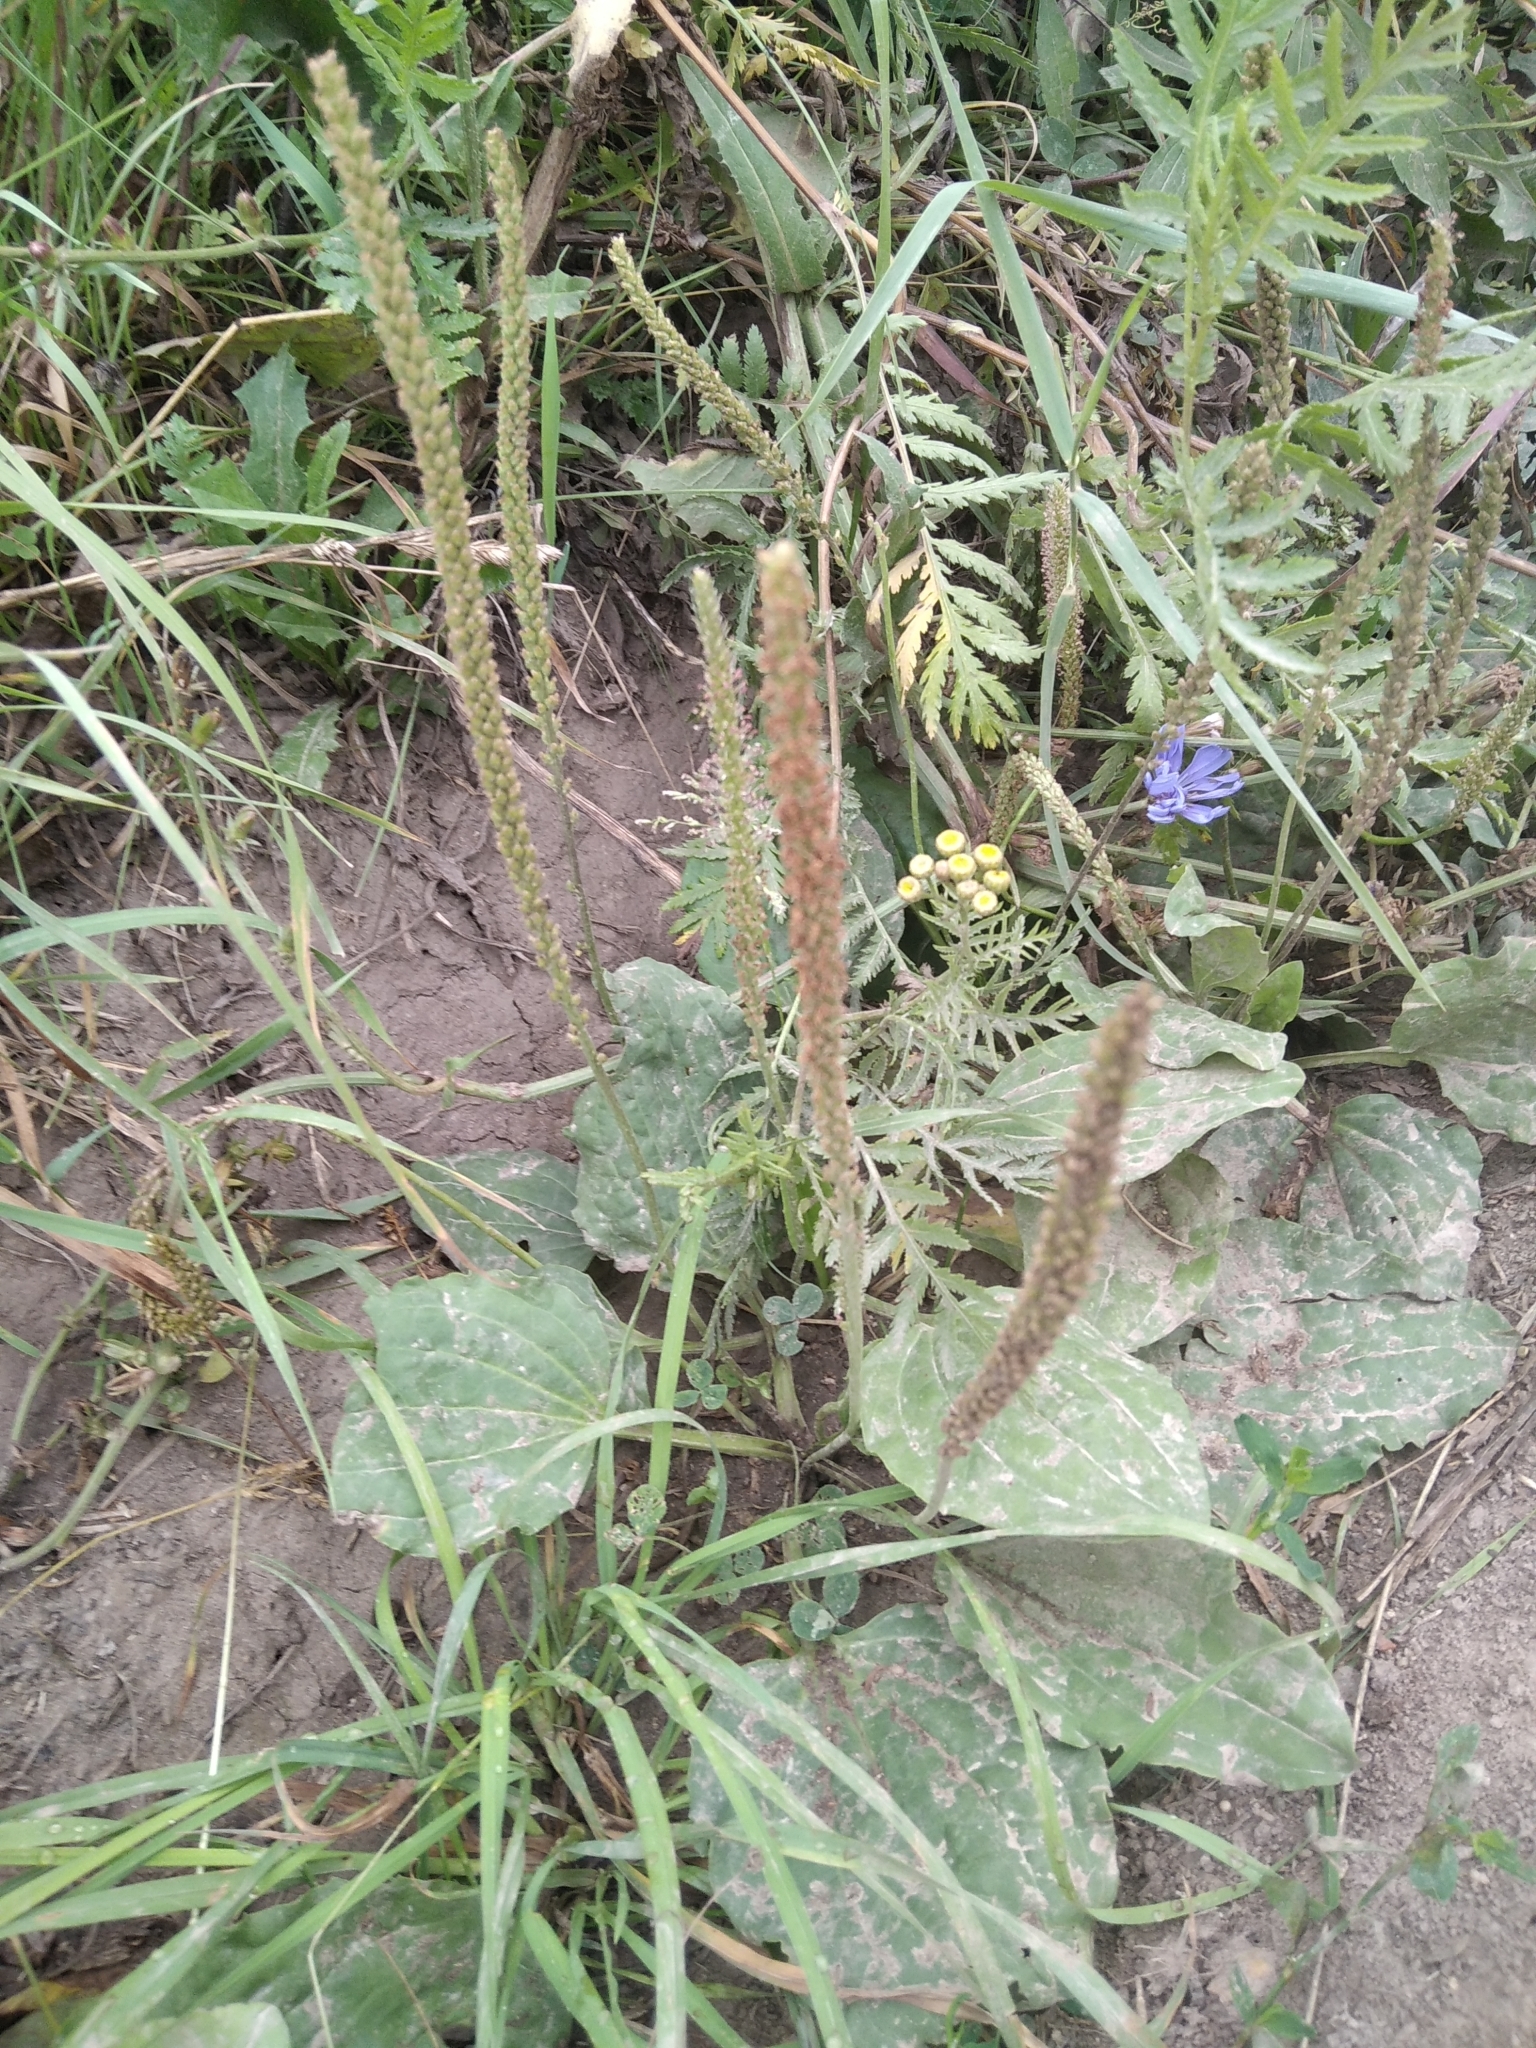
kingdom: Plantae
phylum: Tracheophyta
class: Magnoliopsida
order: Lamiales
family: Plantaginaceae
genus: Plantago
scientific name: Plantago major
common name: Common plantain
